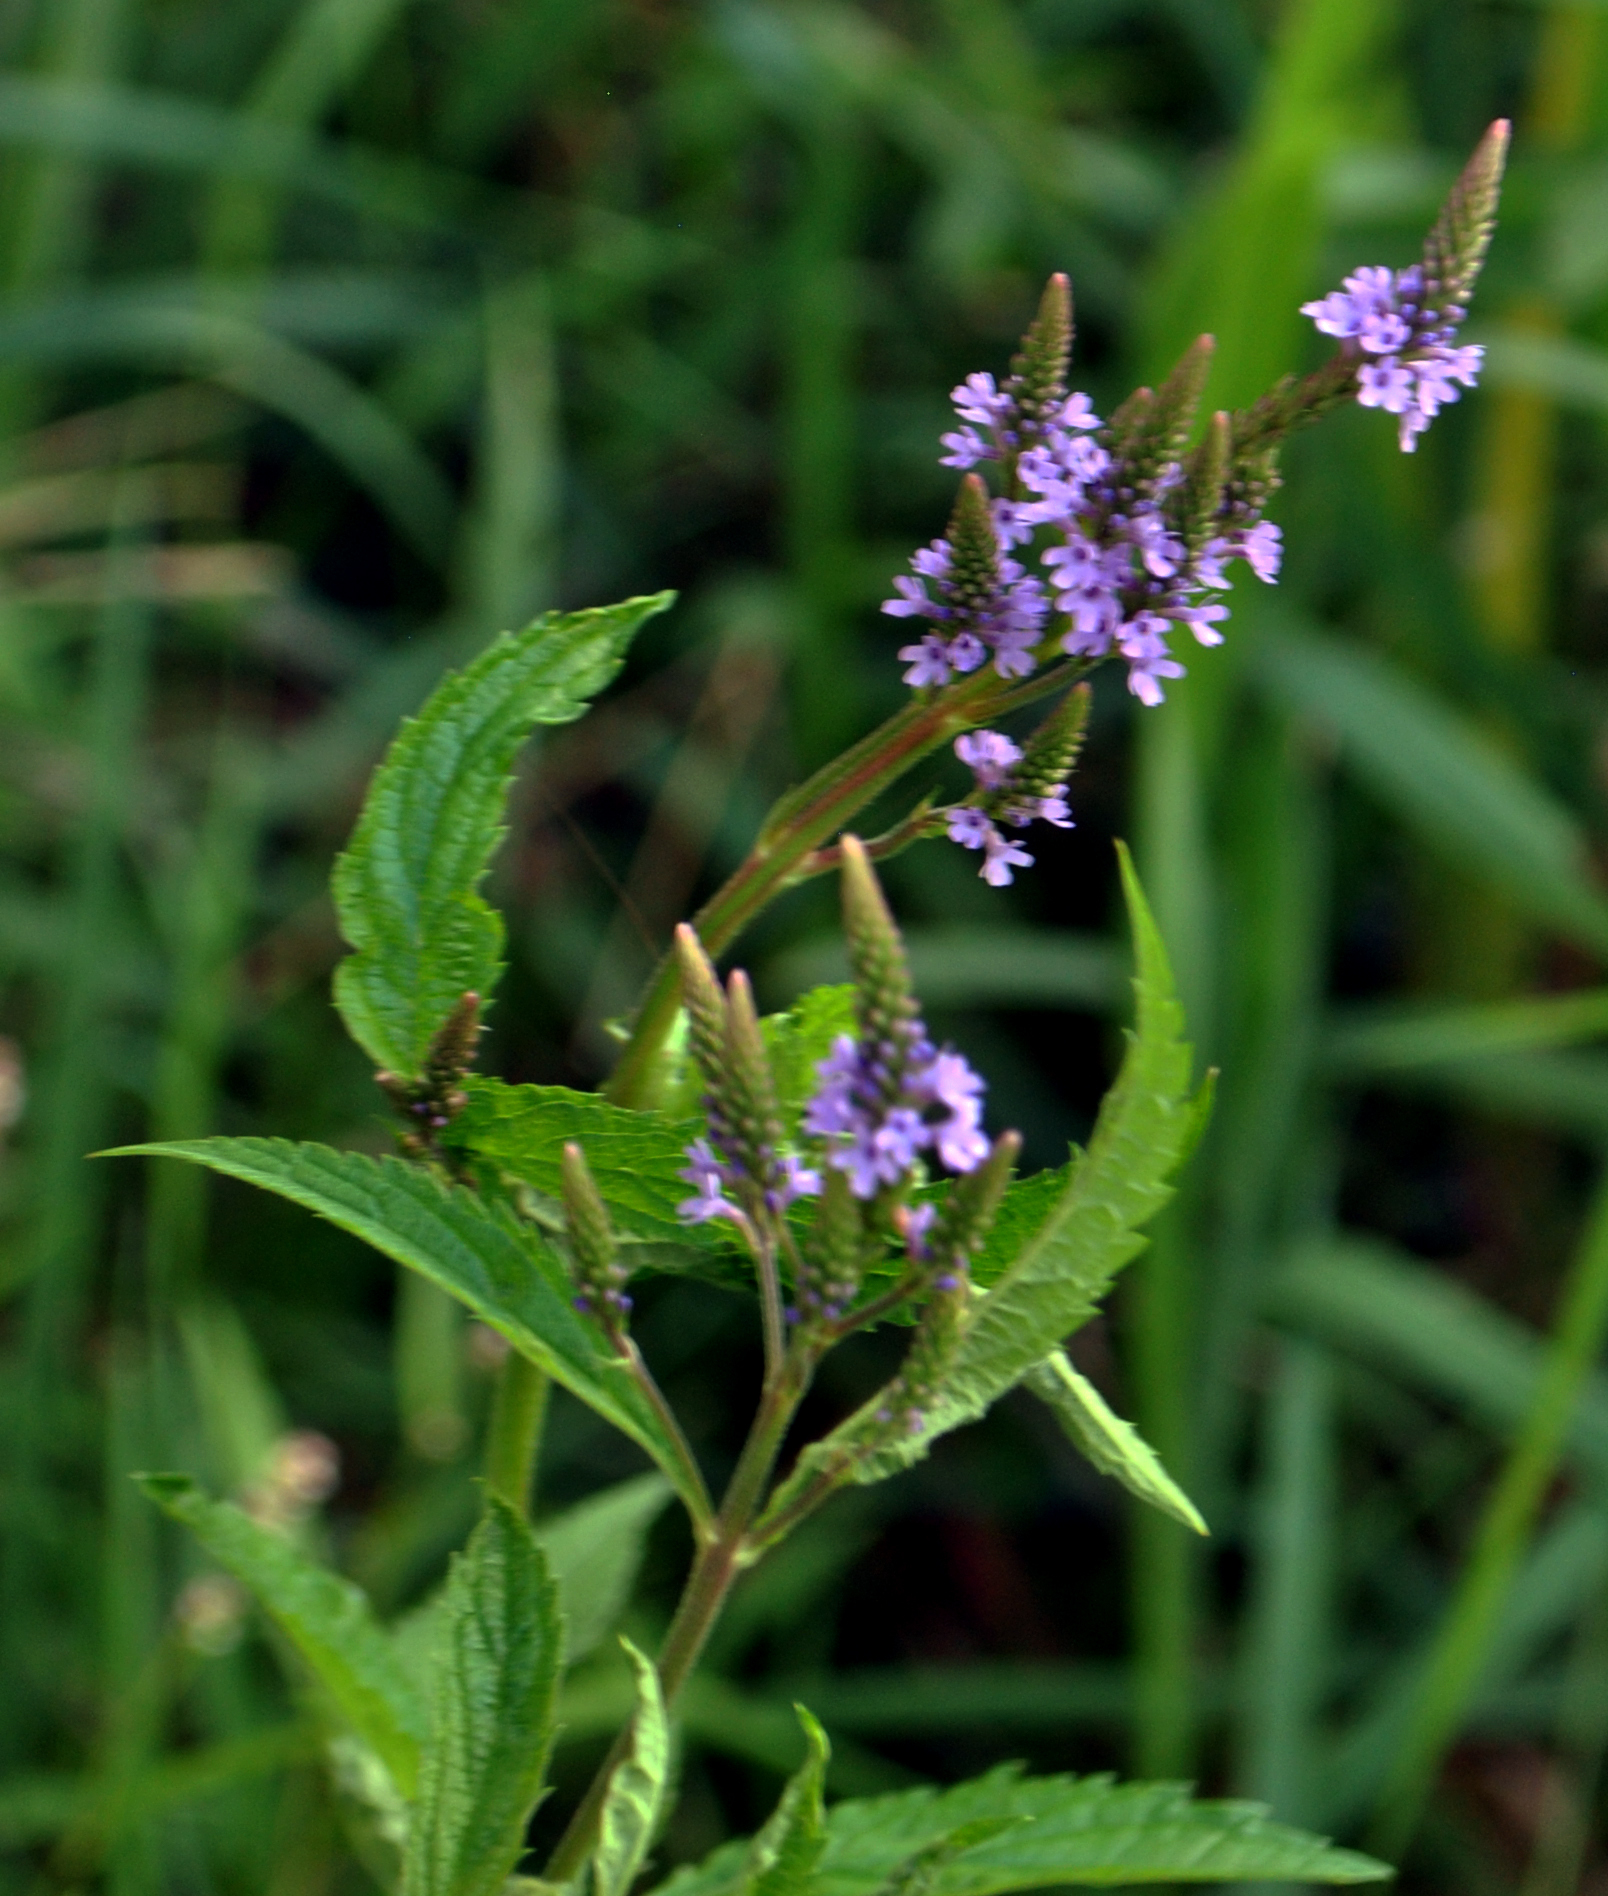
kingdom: Plantae
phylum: Tracheophyta
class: Magnoliopsida
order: Lamiales
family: Verbenaceae
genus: Verbena
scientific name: Verbena hastata
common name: American blue vervain
